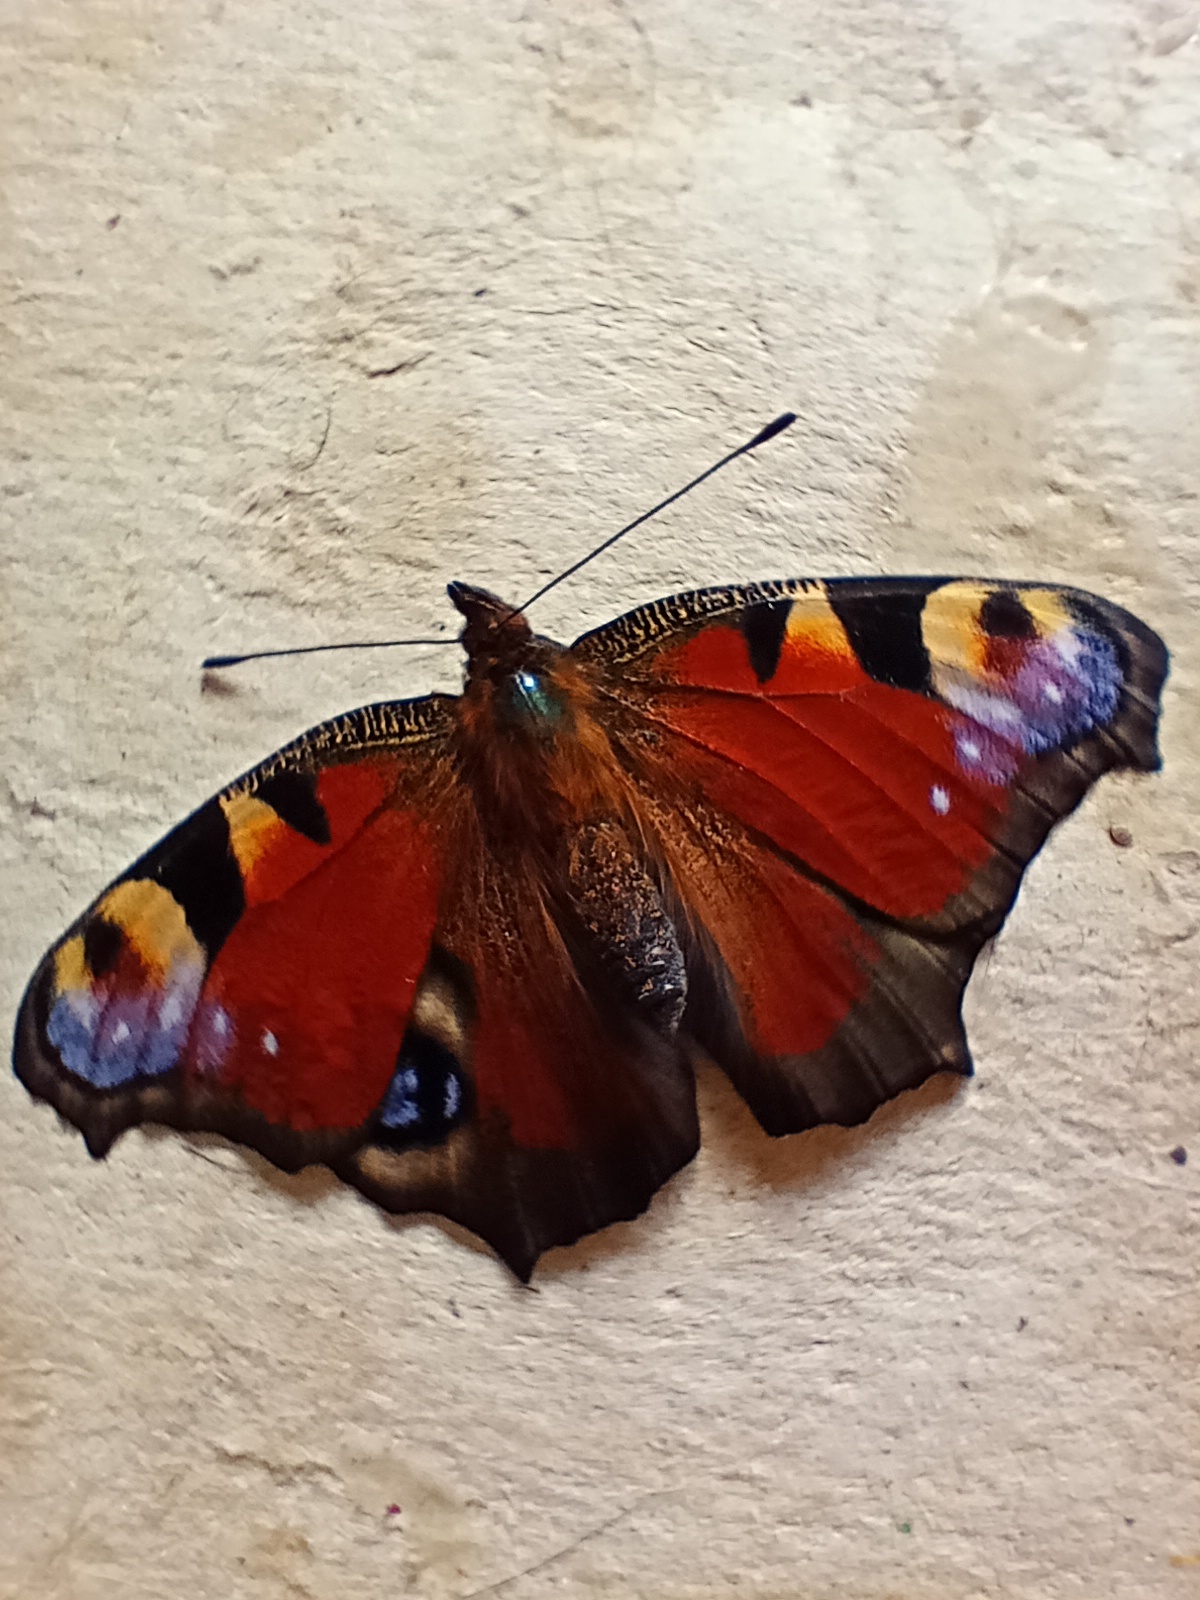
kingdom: Animalia
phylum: Arthropoda
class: Insecta
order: Lepidoptera
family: Nymphalidae
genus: Aglais
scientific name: Aglais io
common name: Peacock
